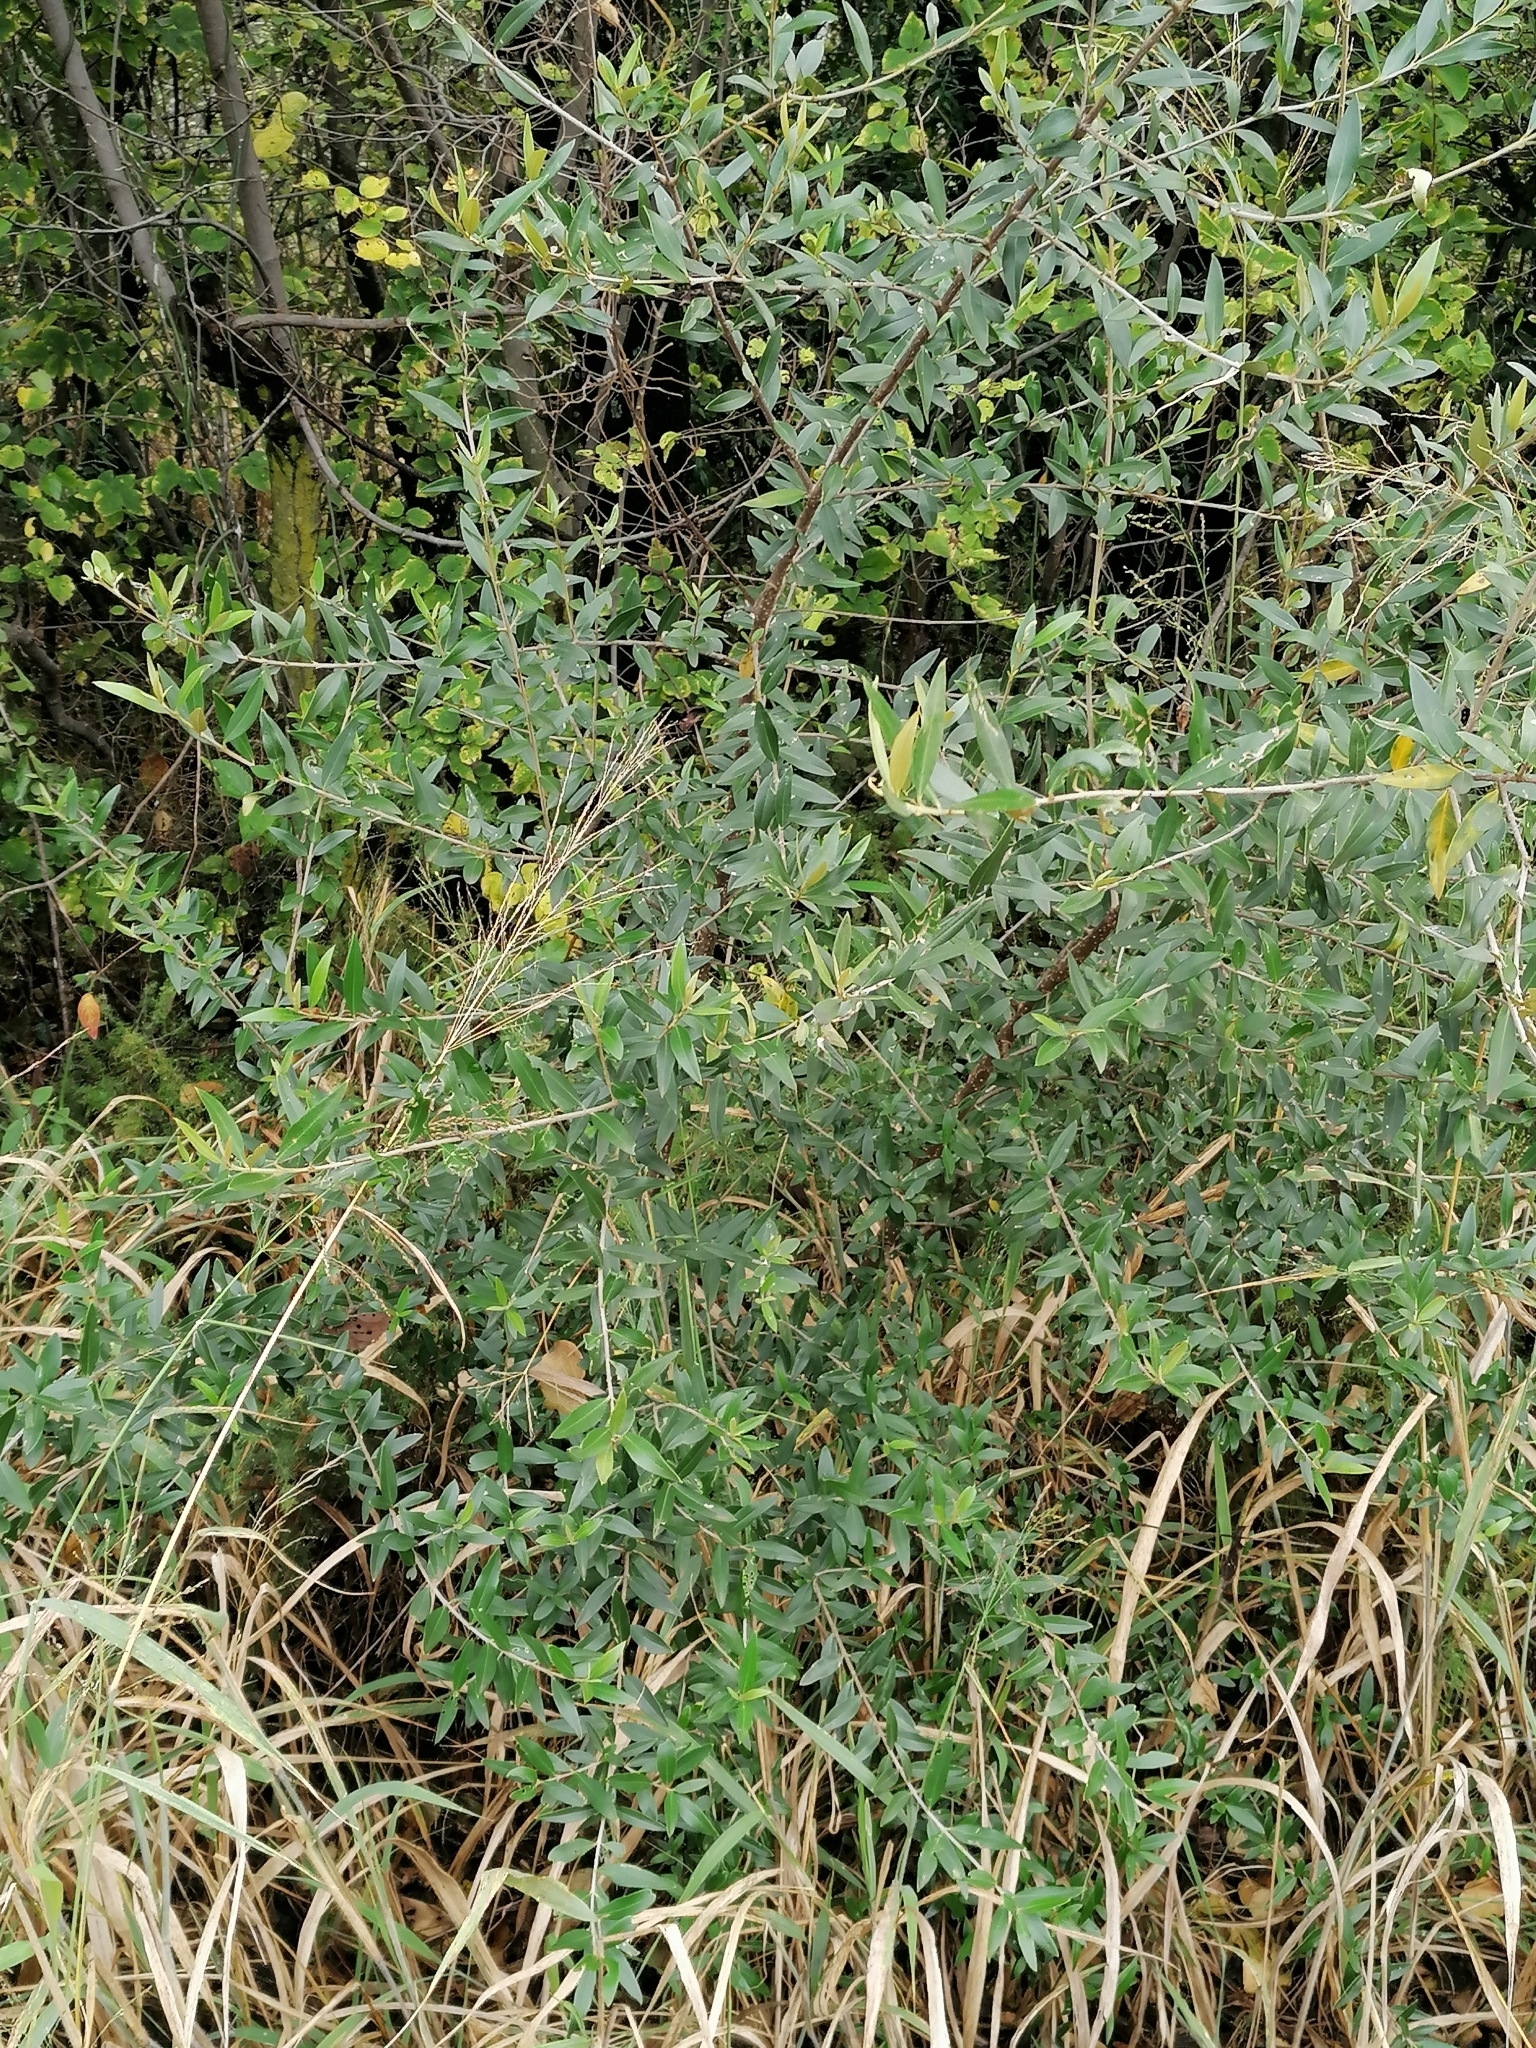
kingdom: Plantae
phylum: Tracheophyta
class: Magnoliopsida
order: Lamiales
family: Oleaceae
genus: Olea
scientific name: Olea europaea
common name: Olive
